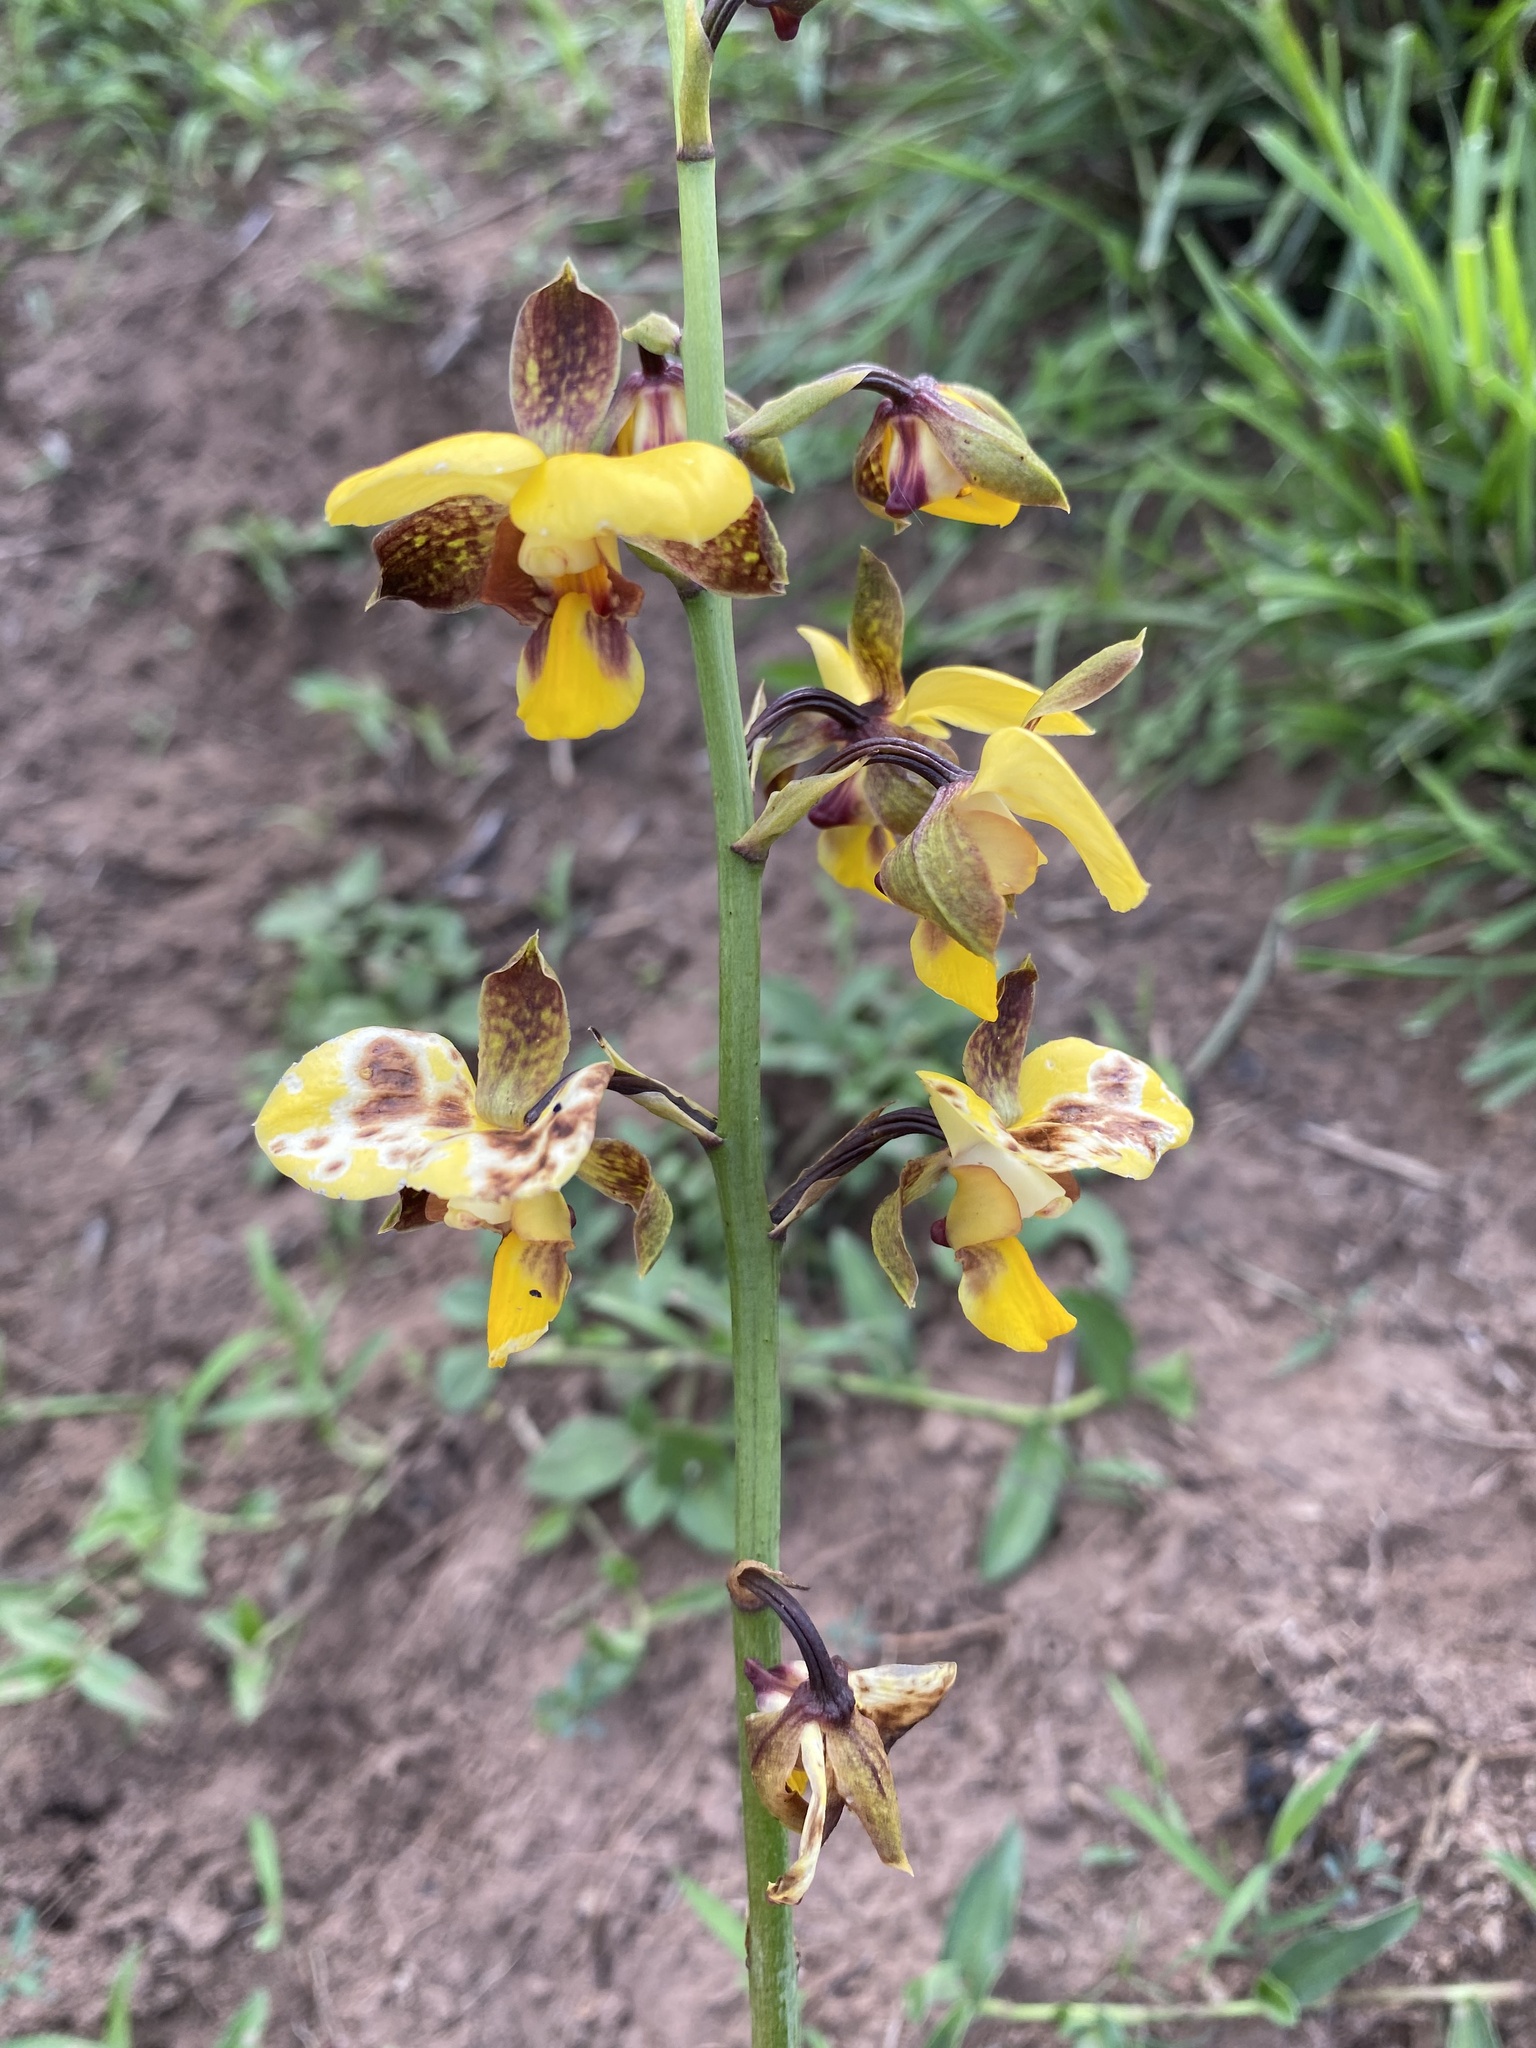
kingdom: Plantae
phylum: Tracheophyta
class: Liliopsida
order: Asparagales
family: Orchidaceae
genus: Eulophia
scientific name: Eulophia streptopetala
